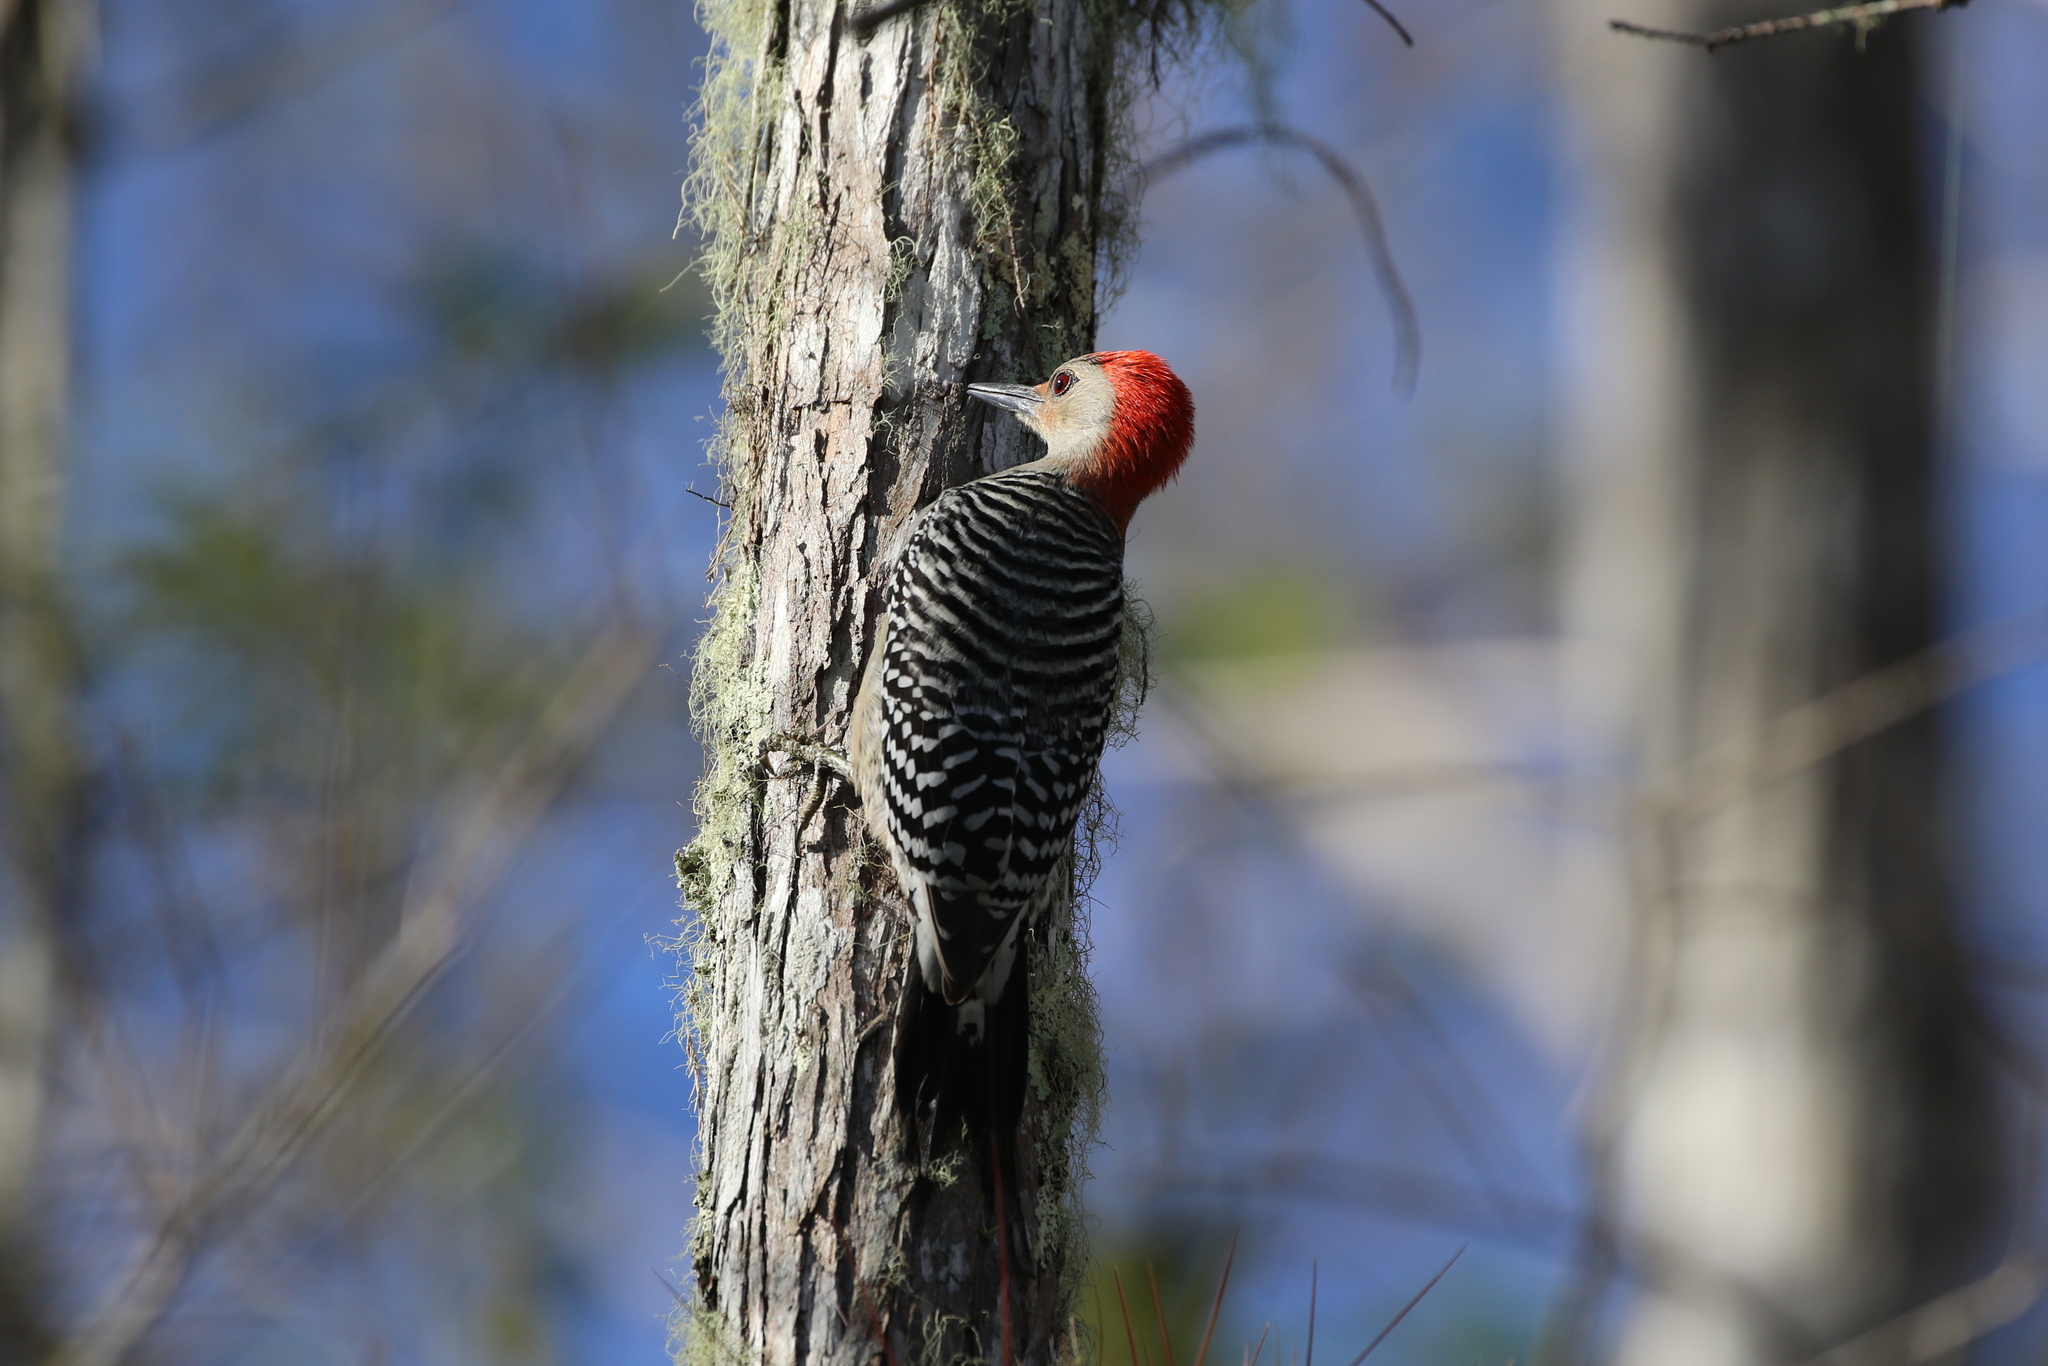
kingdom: Animalia
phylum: Chordata
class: Aves
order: Piciformes
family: Picidae
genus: Melanerpes
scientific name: Melanerpes carolinus
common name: Red-bellied woodpecker
